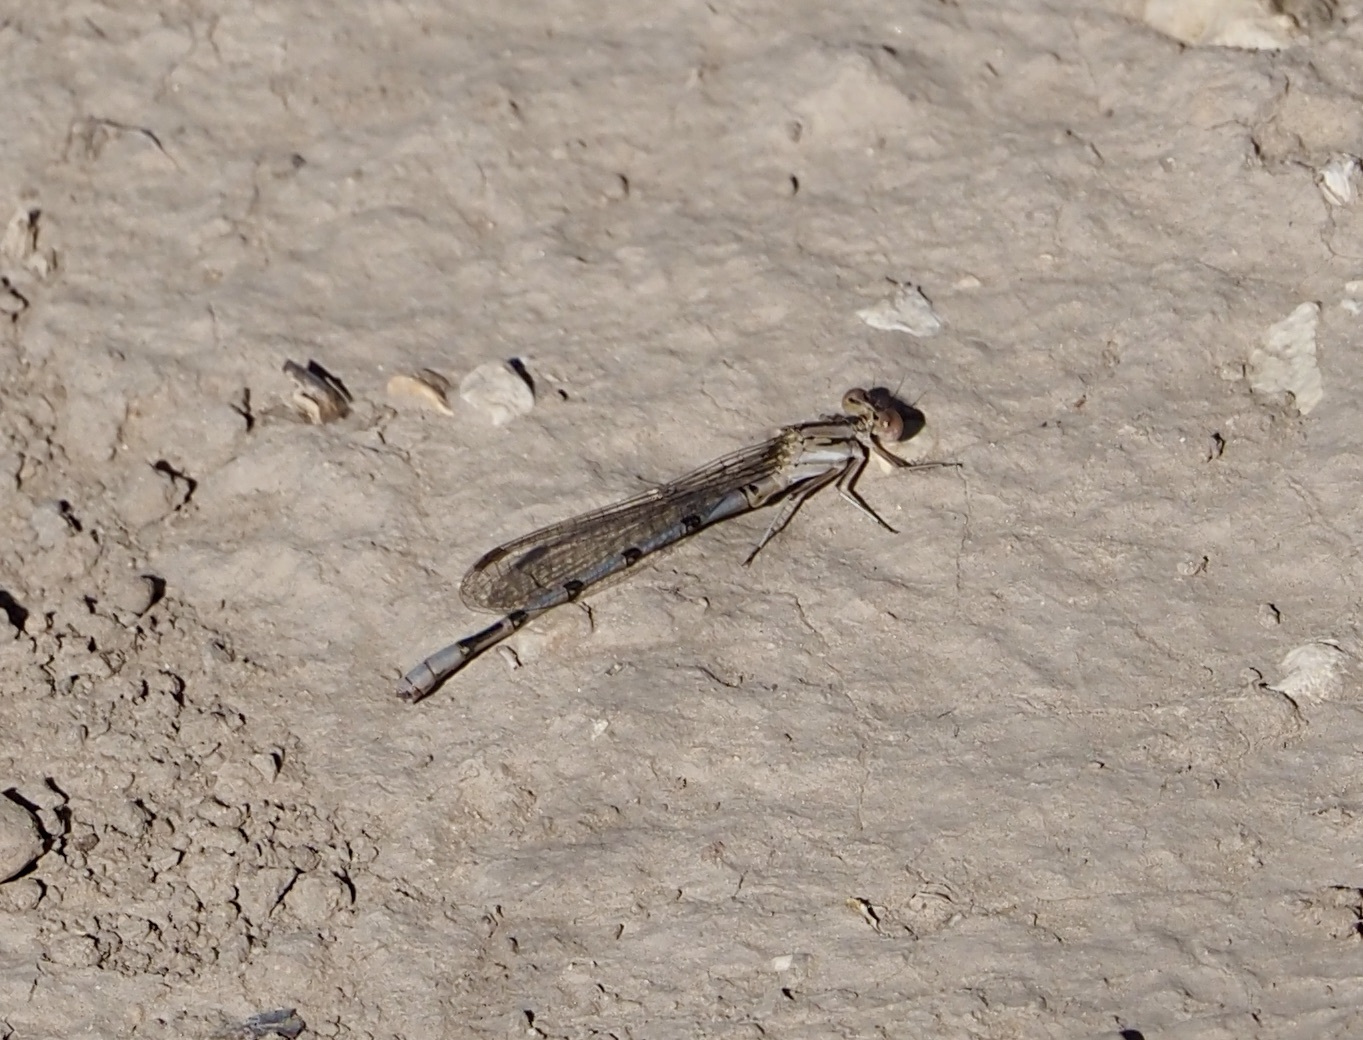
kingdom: Animalia
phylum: Arthropoda
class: Insecta
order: Odonata
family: Coenagrionidae
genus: Argia
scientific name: Argia nahuana
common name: Aztec dancer
